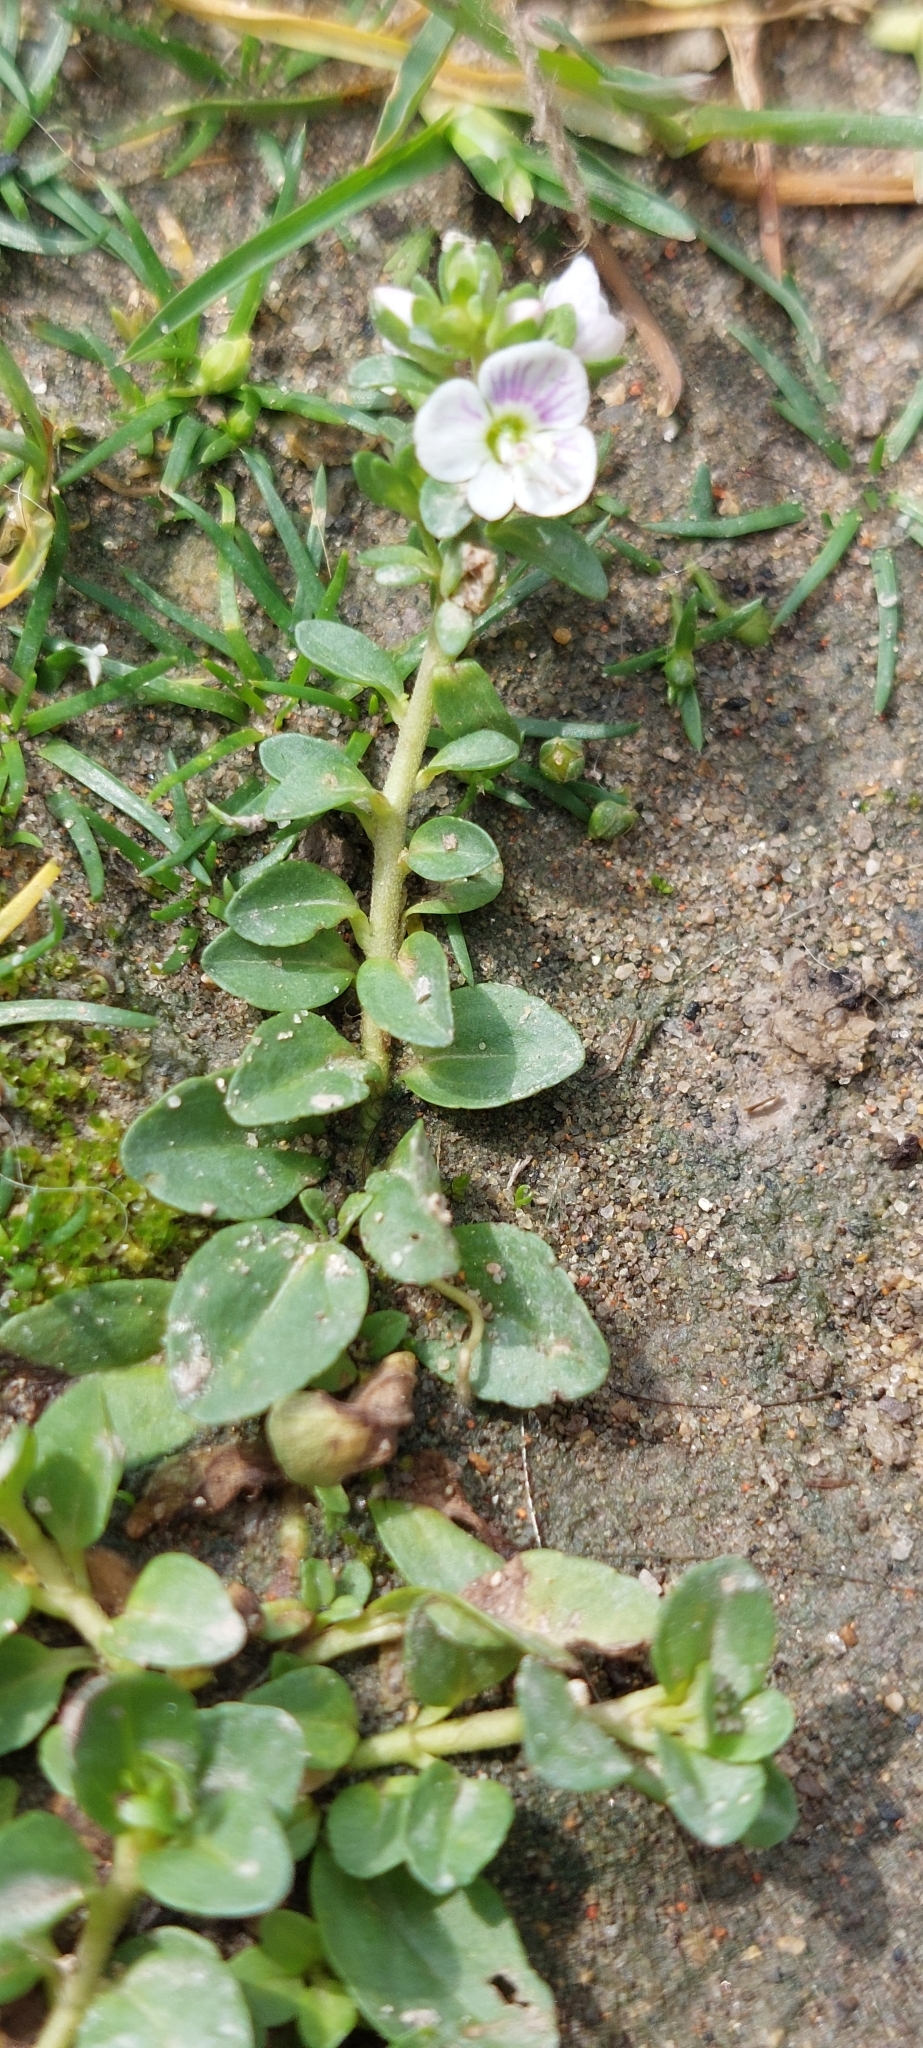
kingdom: Plantae
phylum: Tracheophyta
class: Magnoliopsida
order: Lamiales
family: Plantaginaceae
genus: Veronica
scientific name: Veronica serpyllifolia
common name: Thyme-leaved speedwell
